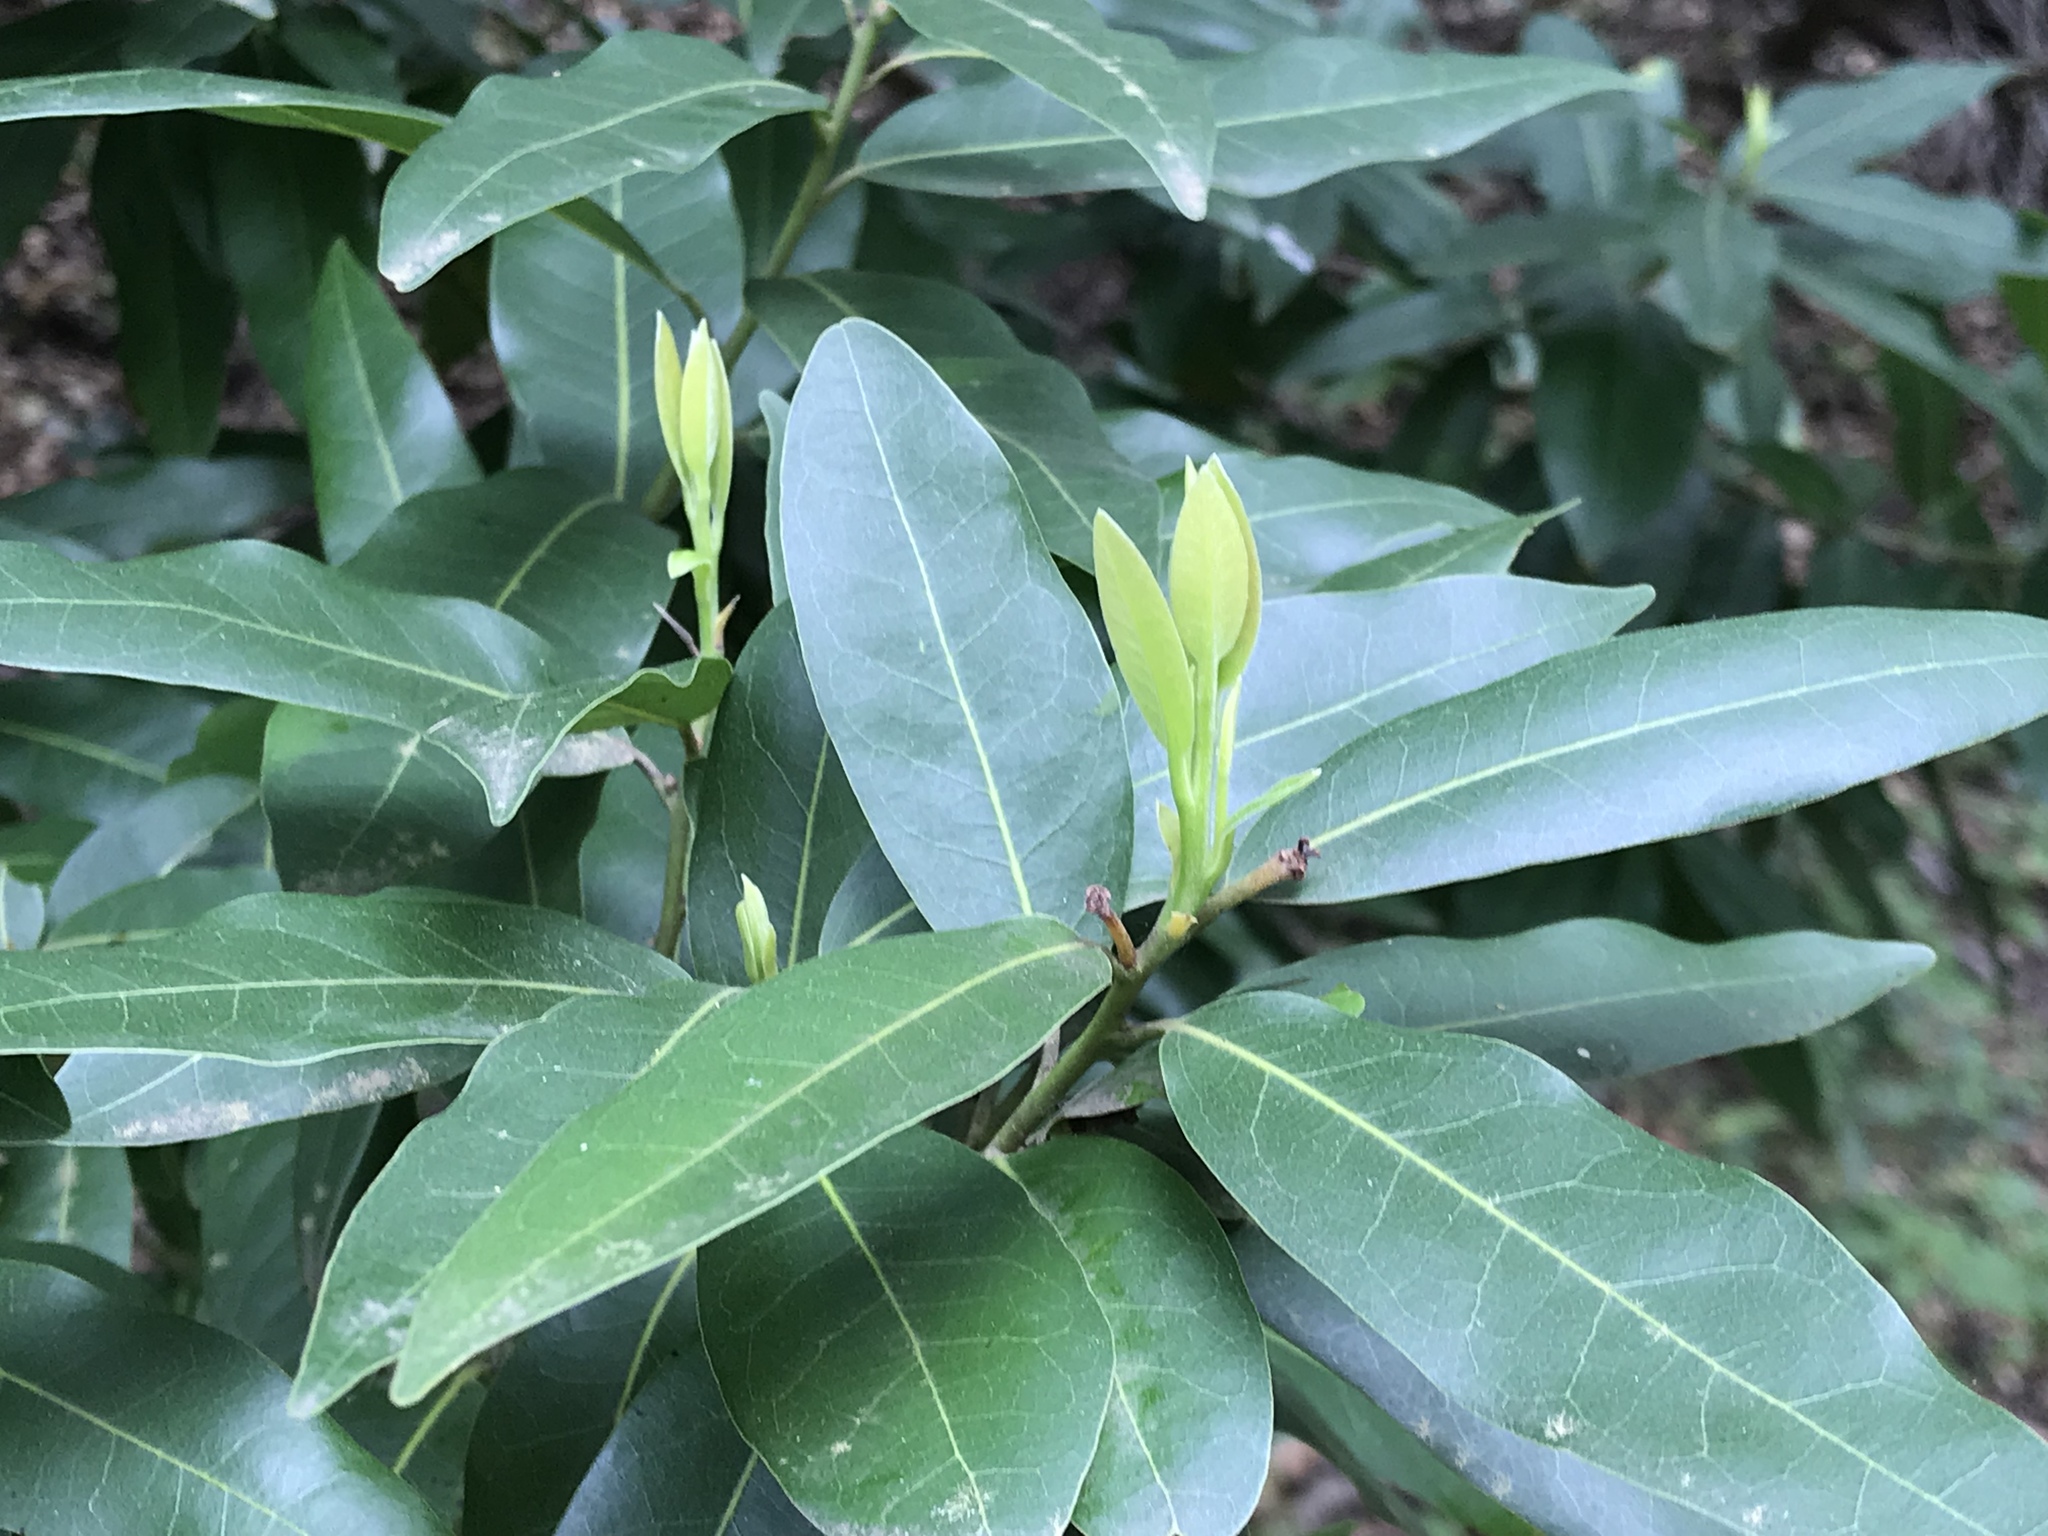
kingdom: Plantae
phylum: Tracheophyta
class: Magnoliopsida
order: Laurales
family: Lauraceae
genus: Umbellularia
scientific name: Umbellularia californica
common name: California bay
